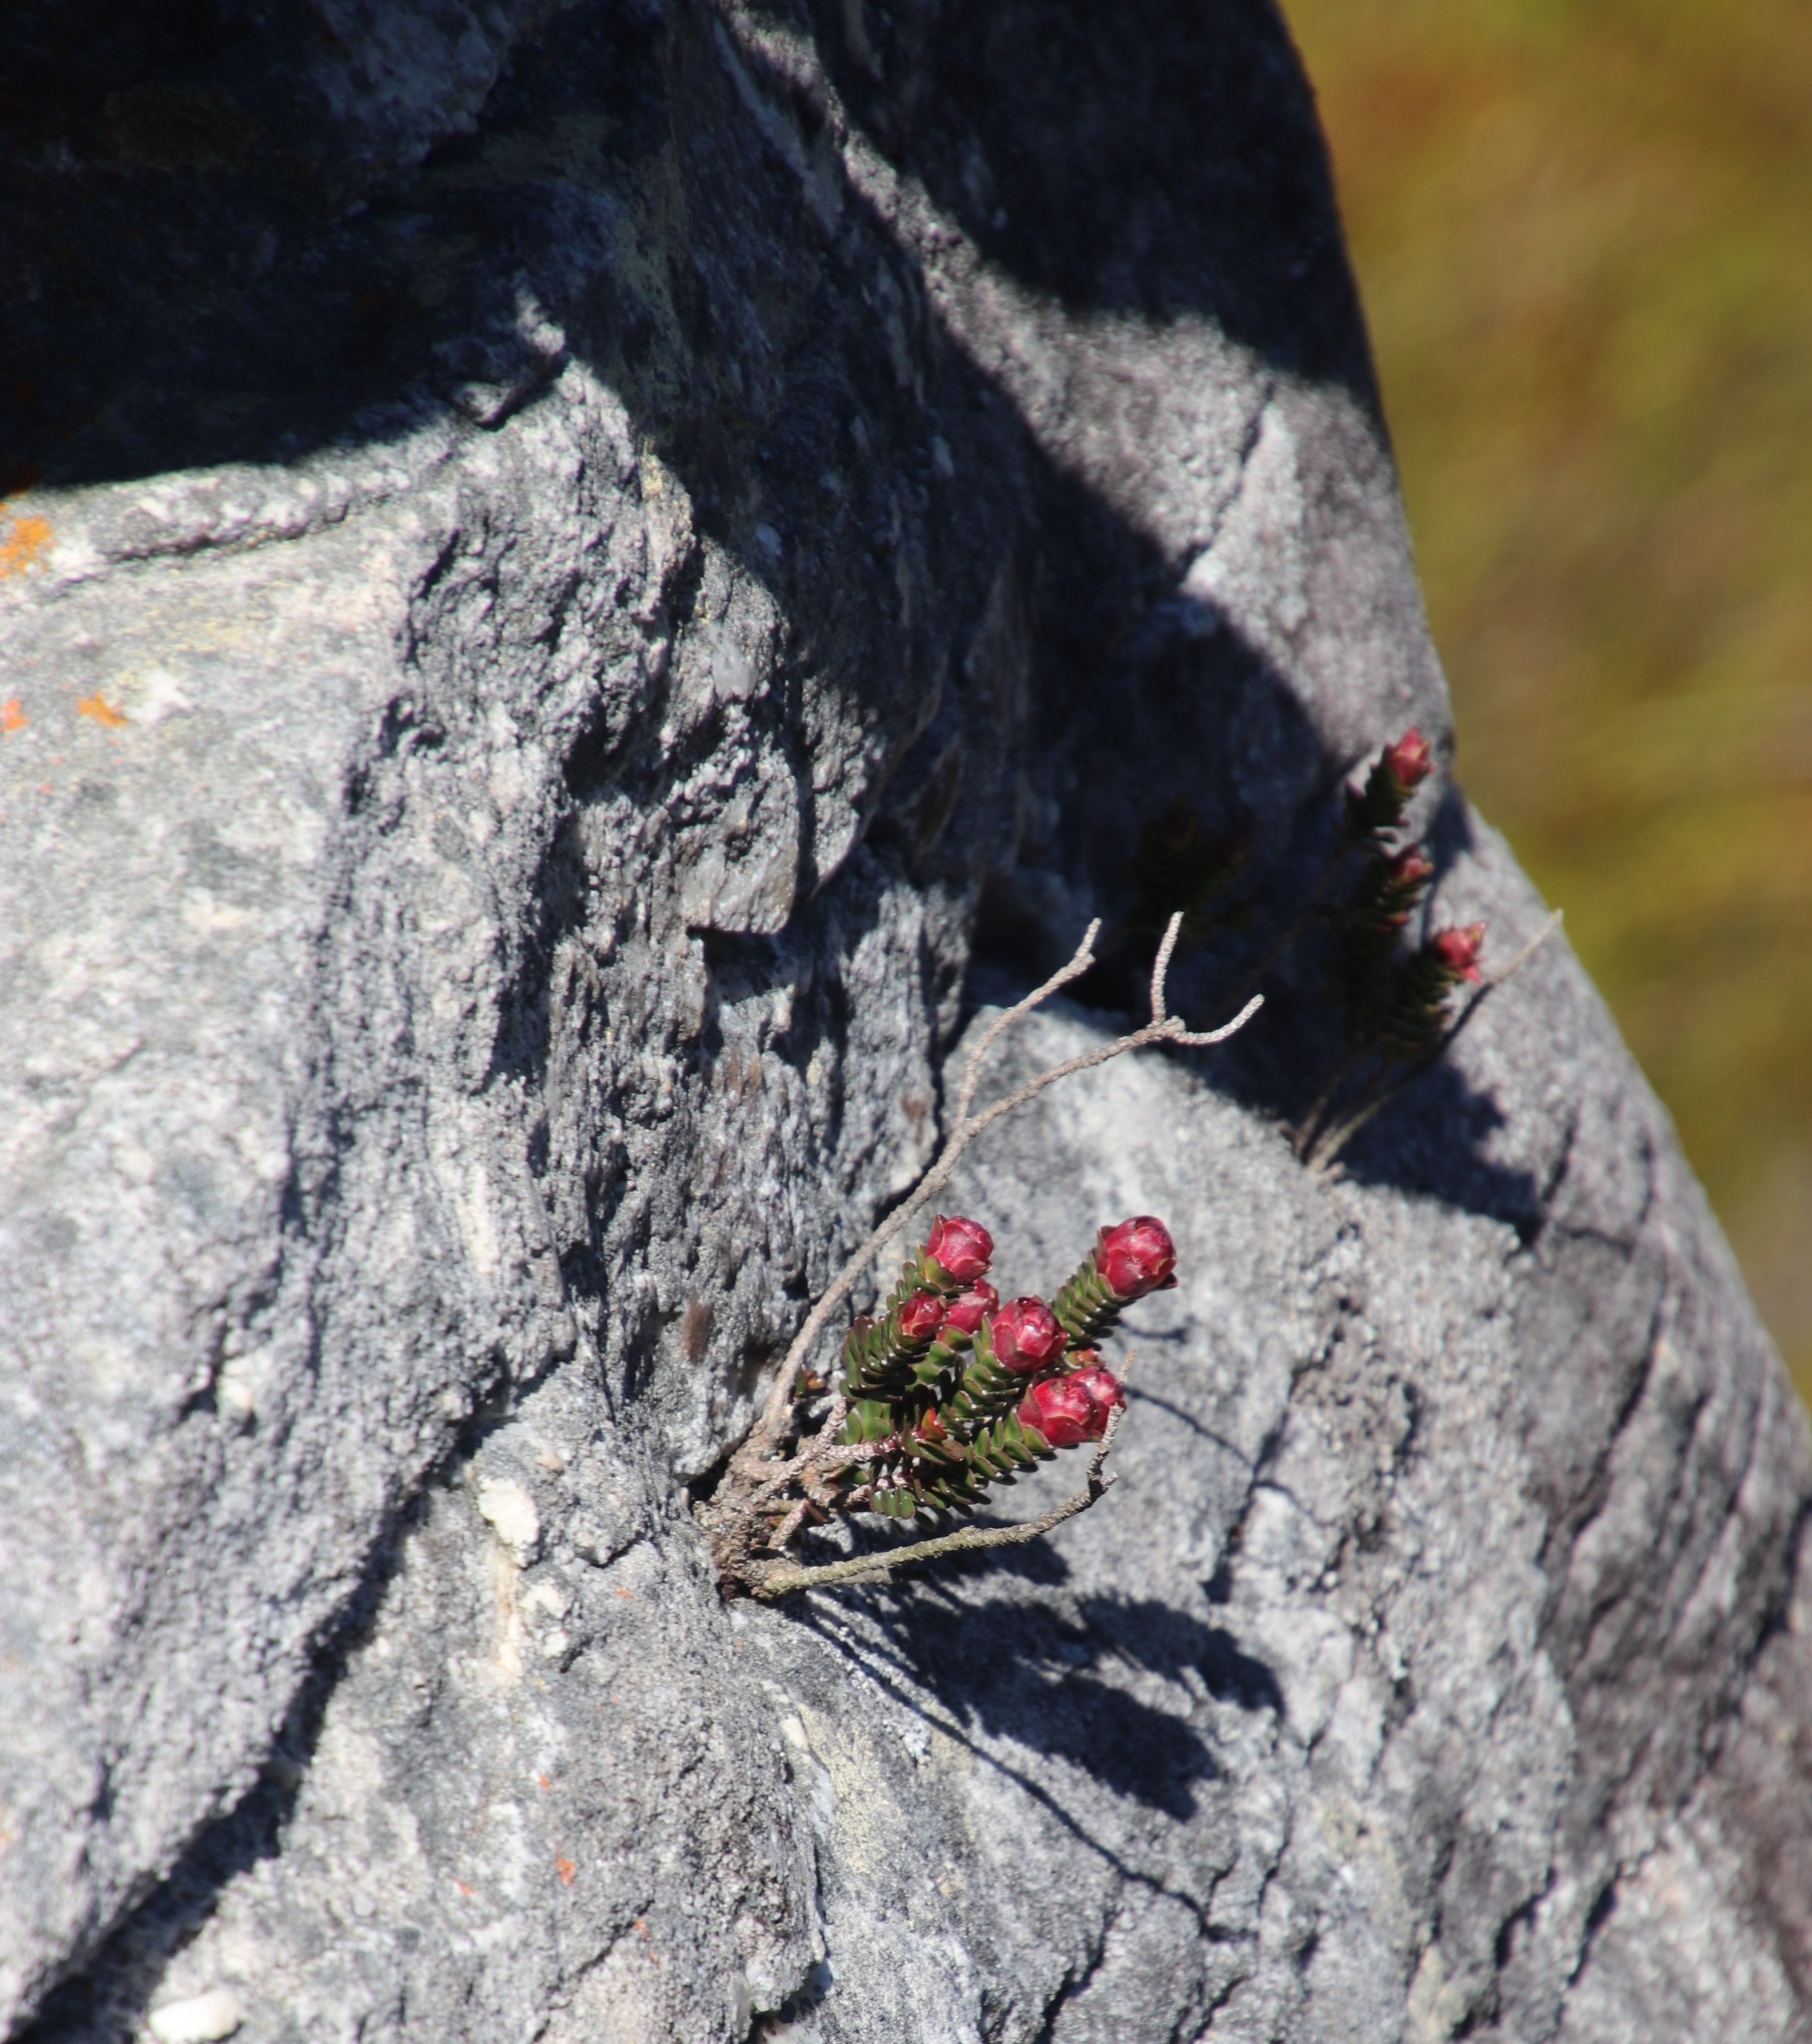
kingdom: Plantae
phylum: Tracheophyta
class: Magnoliopsida
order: Myrtales
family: Penaeaceae
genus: Sonderothamnus
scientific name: Sonderothamnus petraeus
